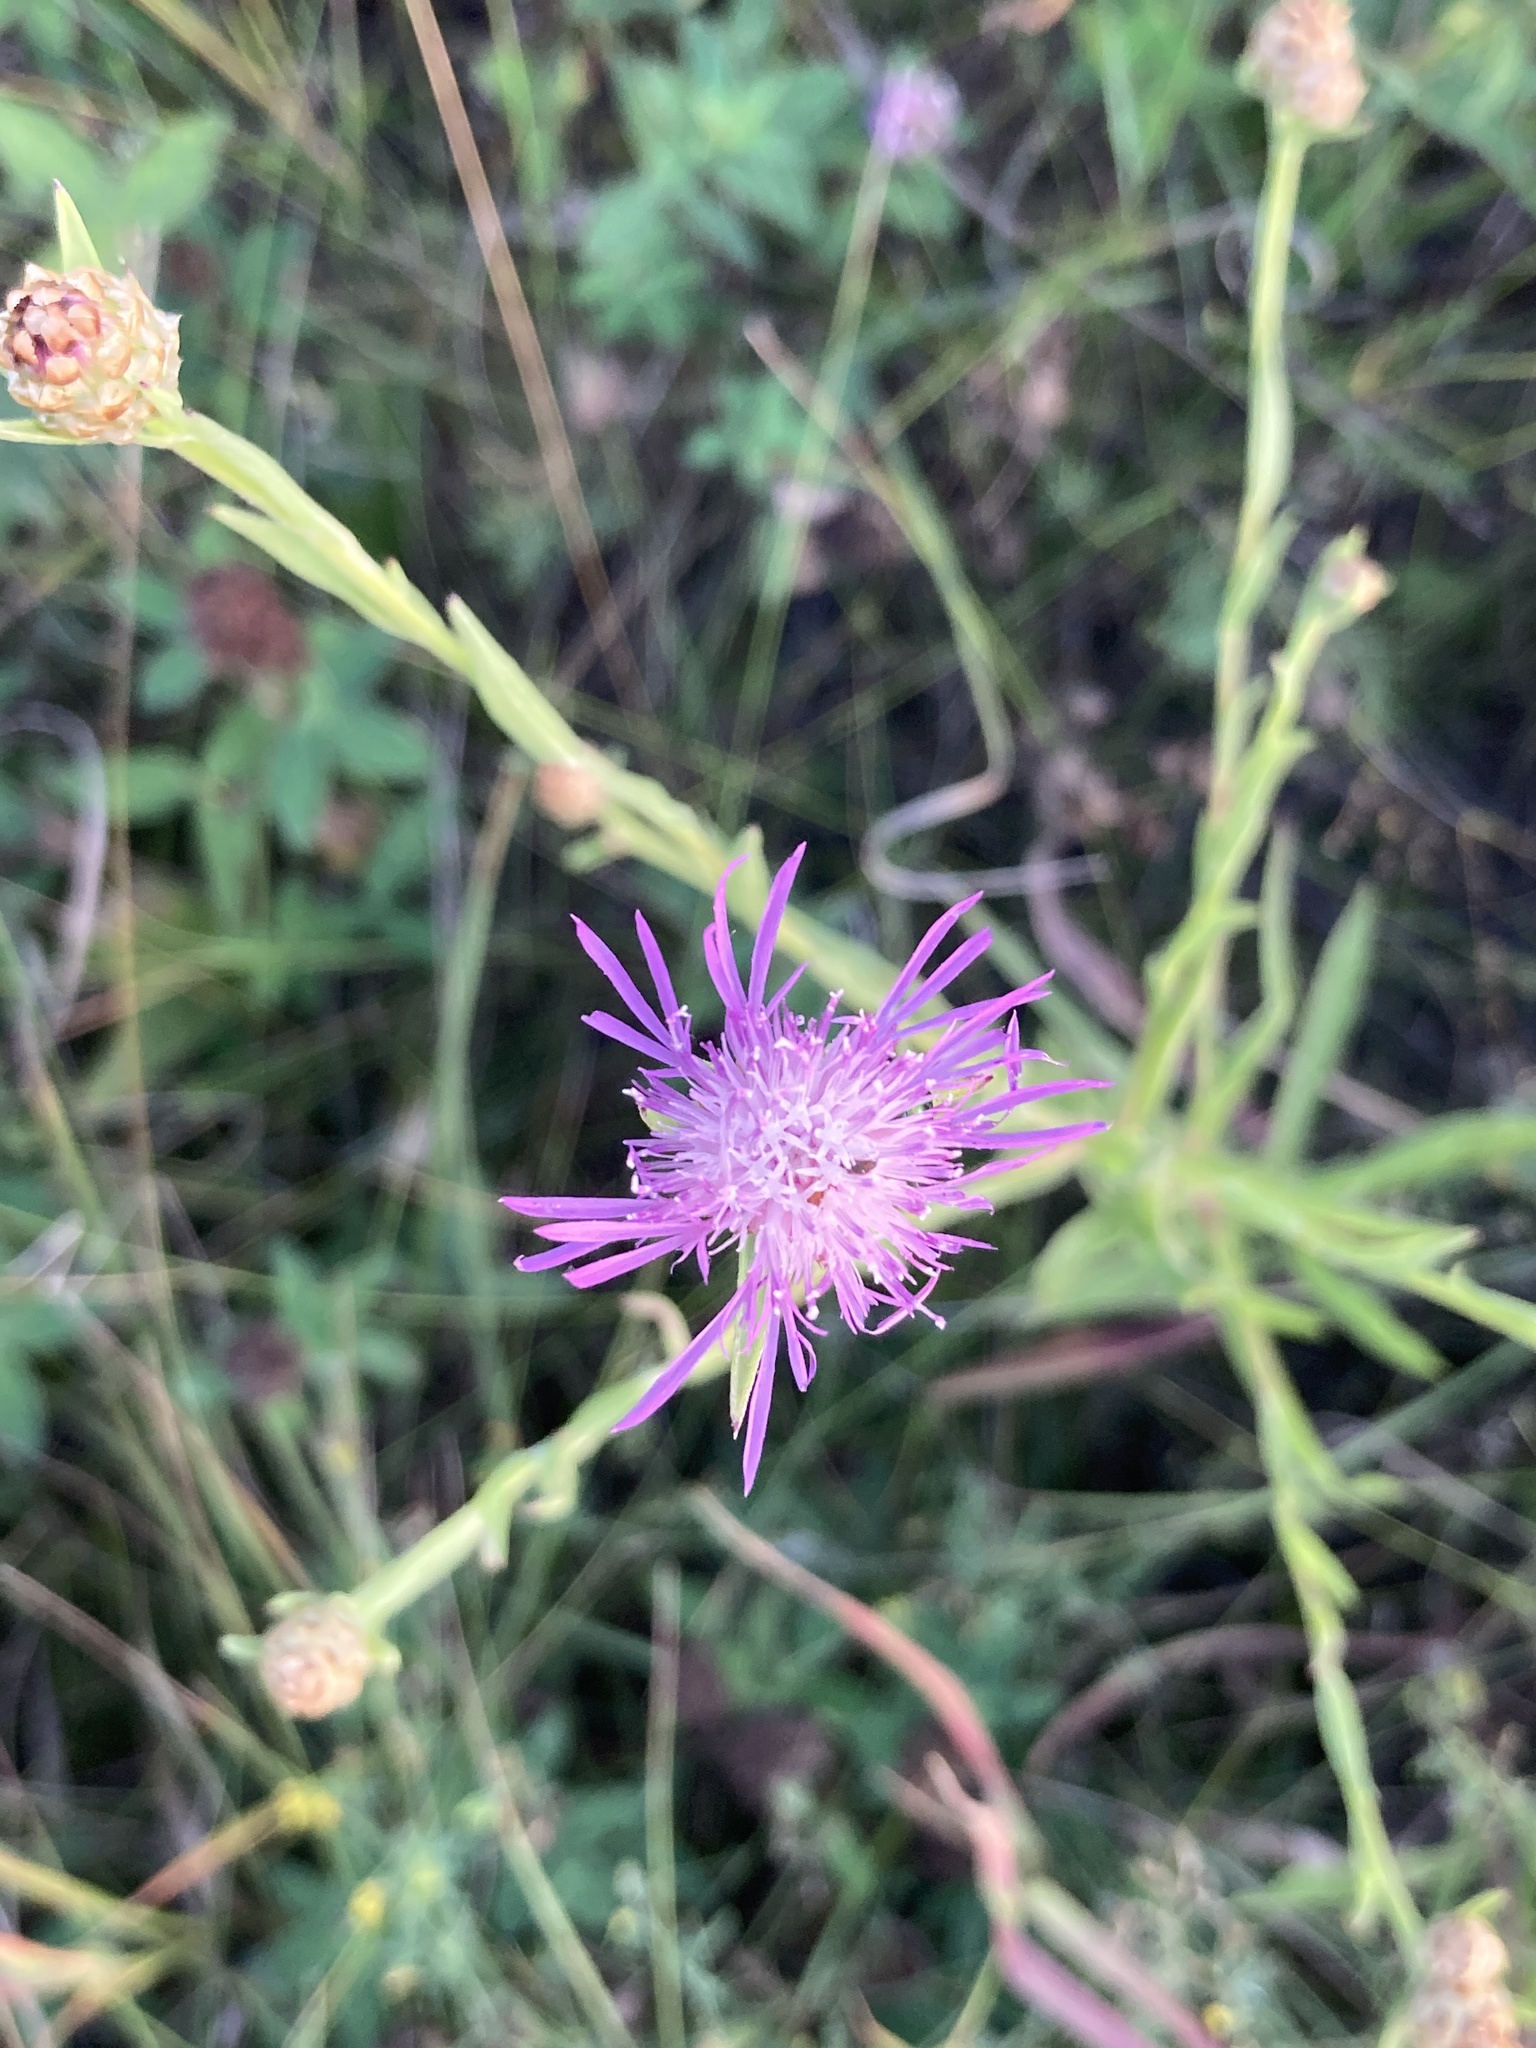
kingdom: Plantae
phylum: Tracheophyta
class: Magnoliopsida
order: Asterales
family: Asteraceae
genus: Centaurea
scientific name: Centaurea jacea
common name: Brown knapweed
